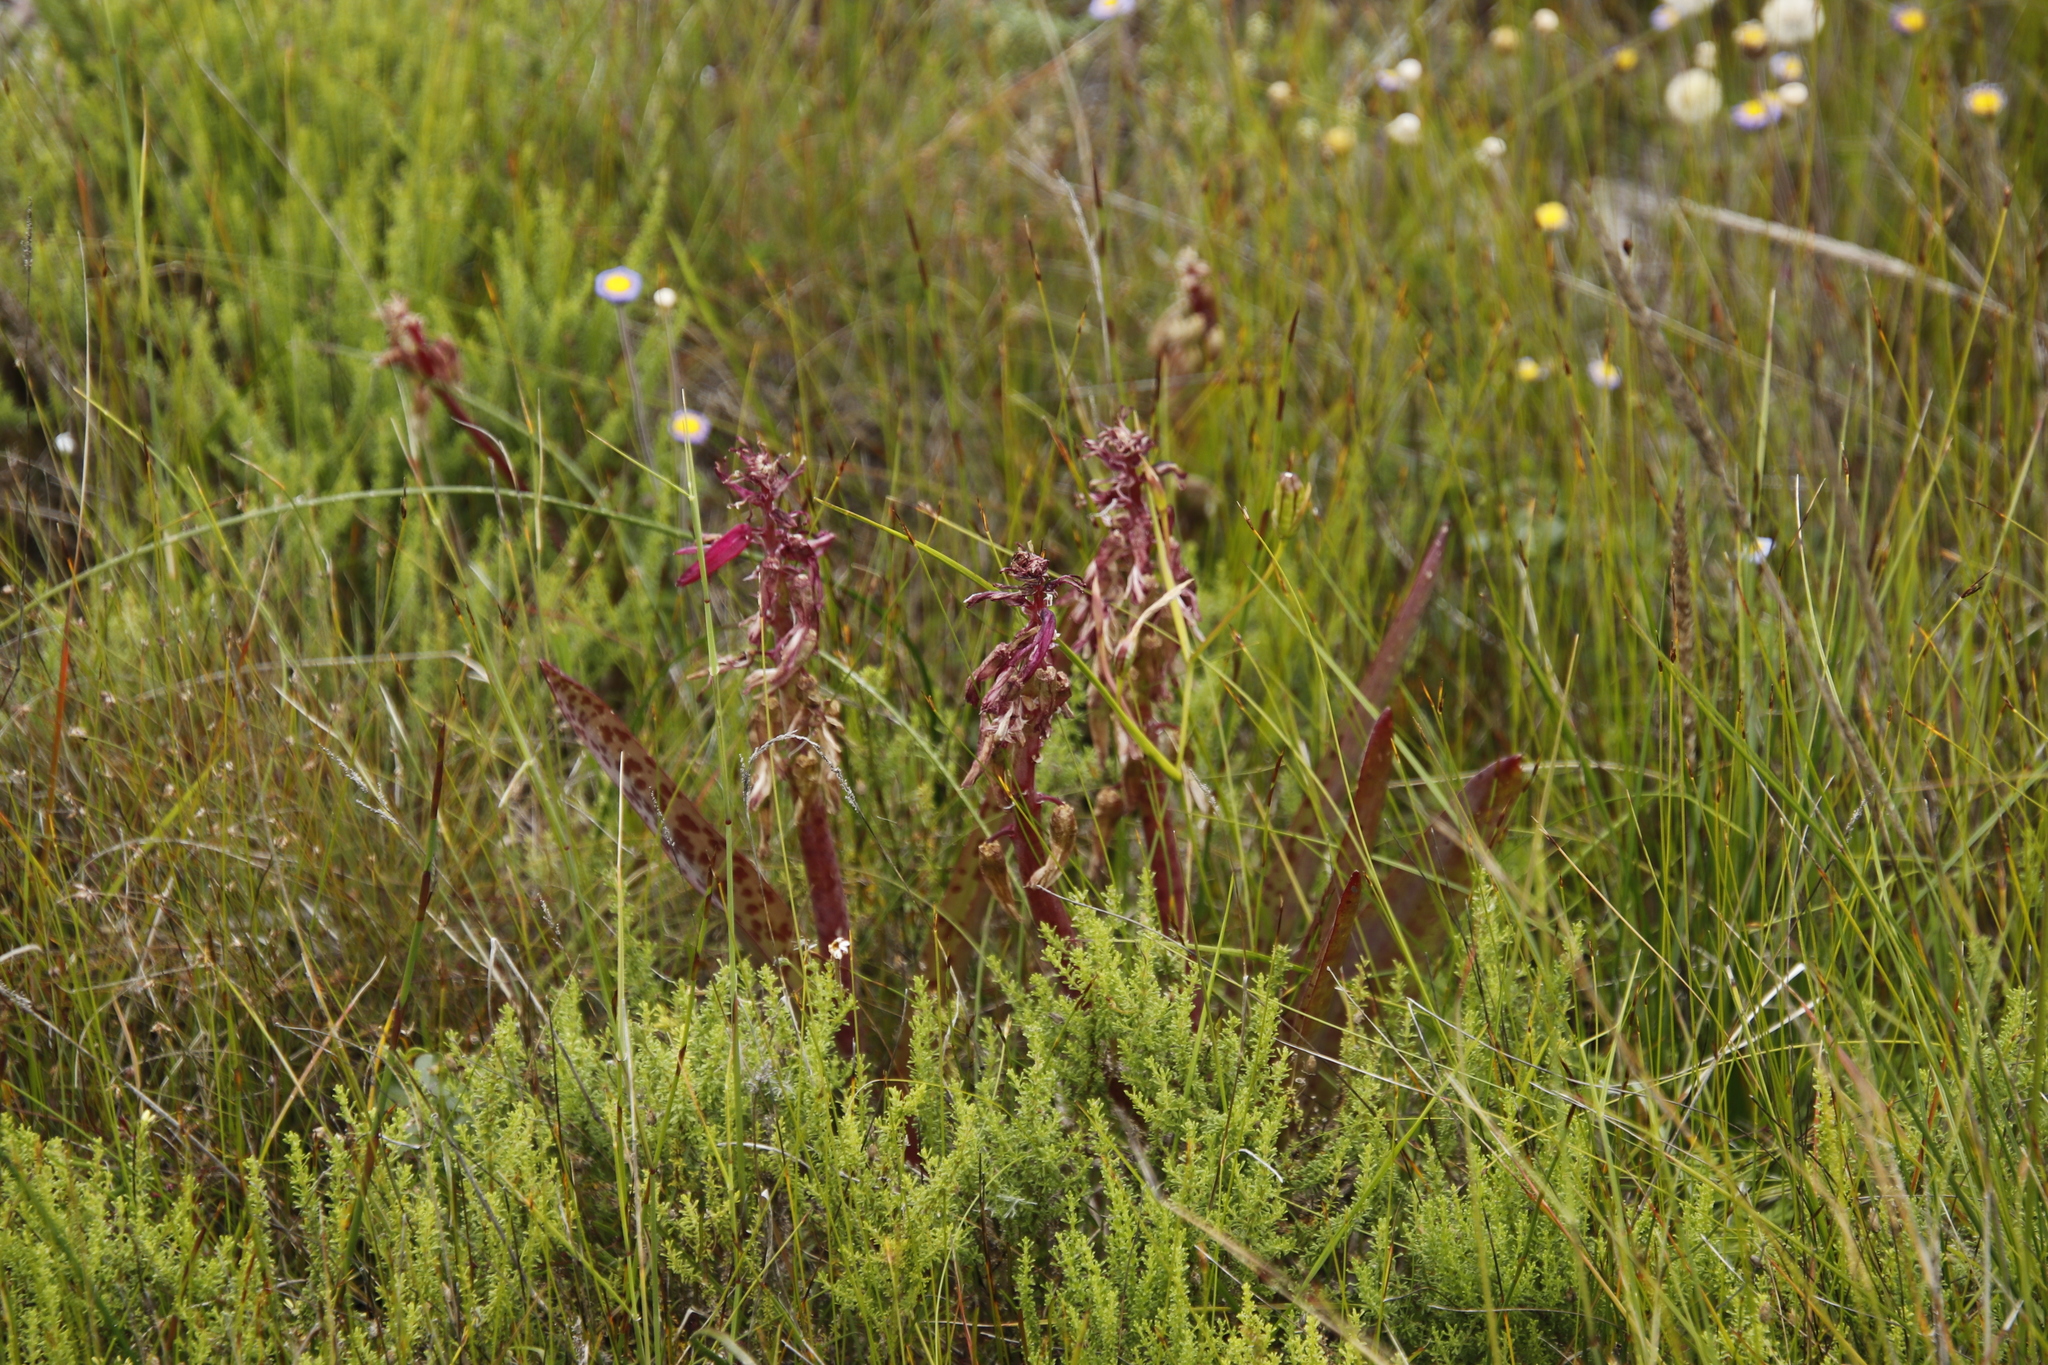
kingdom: Plantae
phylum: Tracheophyta
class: Liliopsida
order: Asparagales
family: Asparagaceae
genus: Lachenalia
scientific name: Lachenalia bulbifera
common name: Red lachenalia
